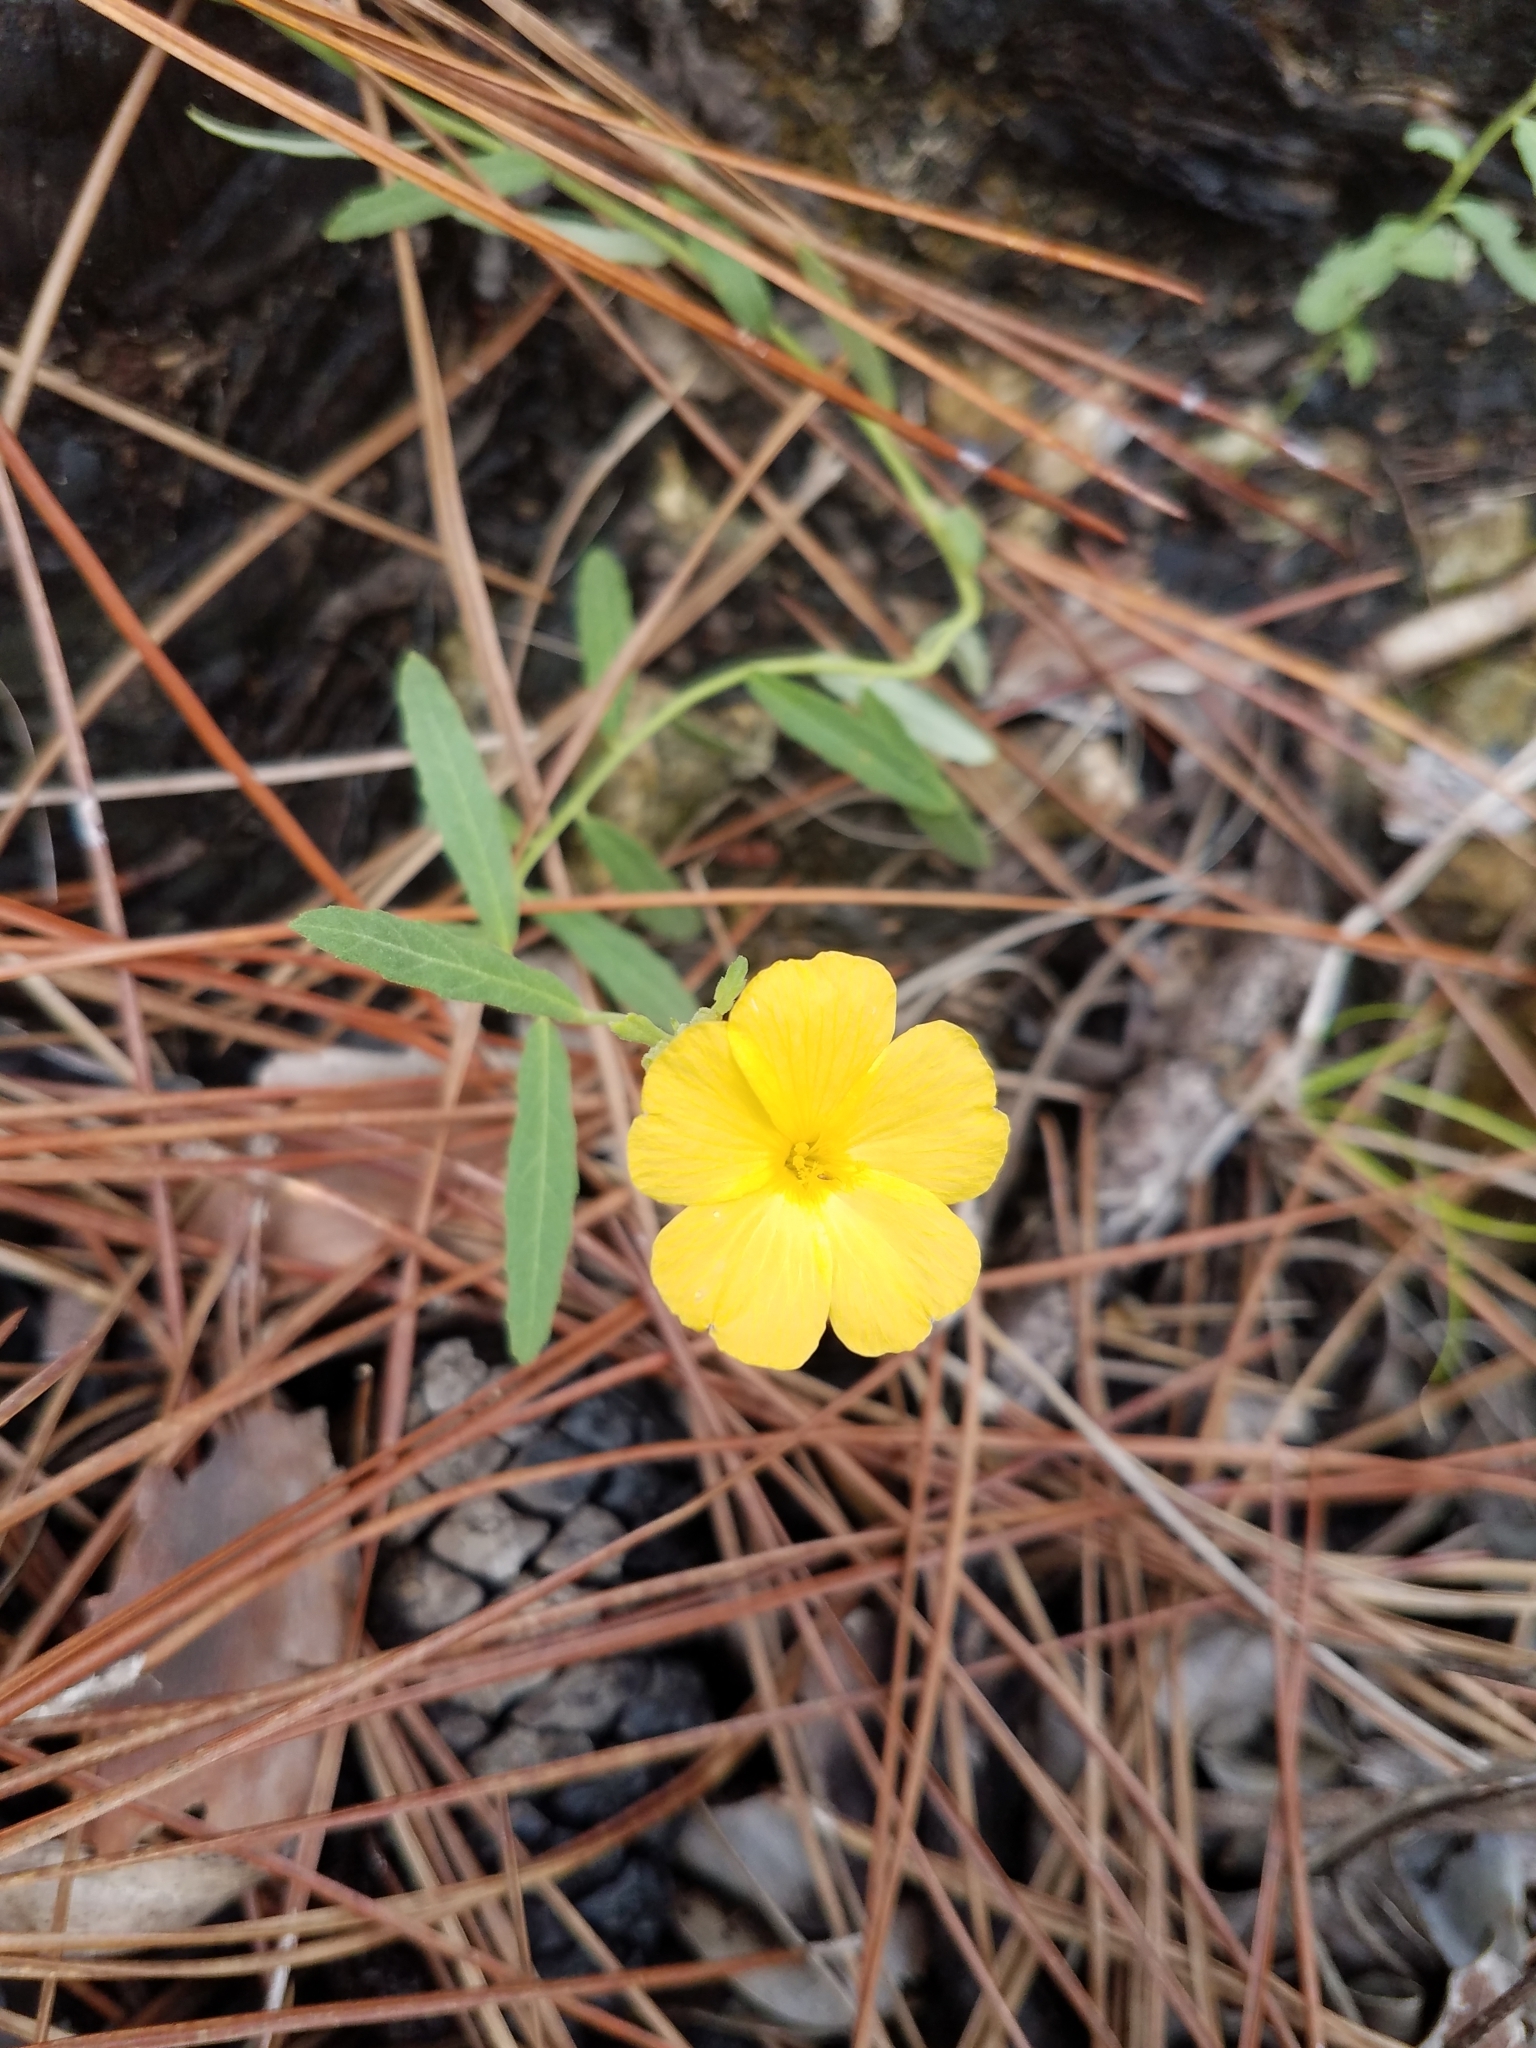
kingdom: Plantae
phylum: Tracheophyta
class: Magnoliopsida
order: Malpighiales
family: Turneraceae
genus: Piriqueta
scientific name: Piriqueta cistoides
